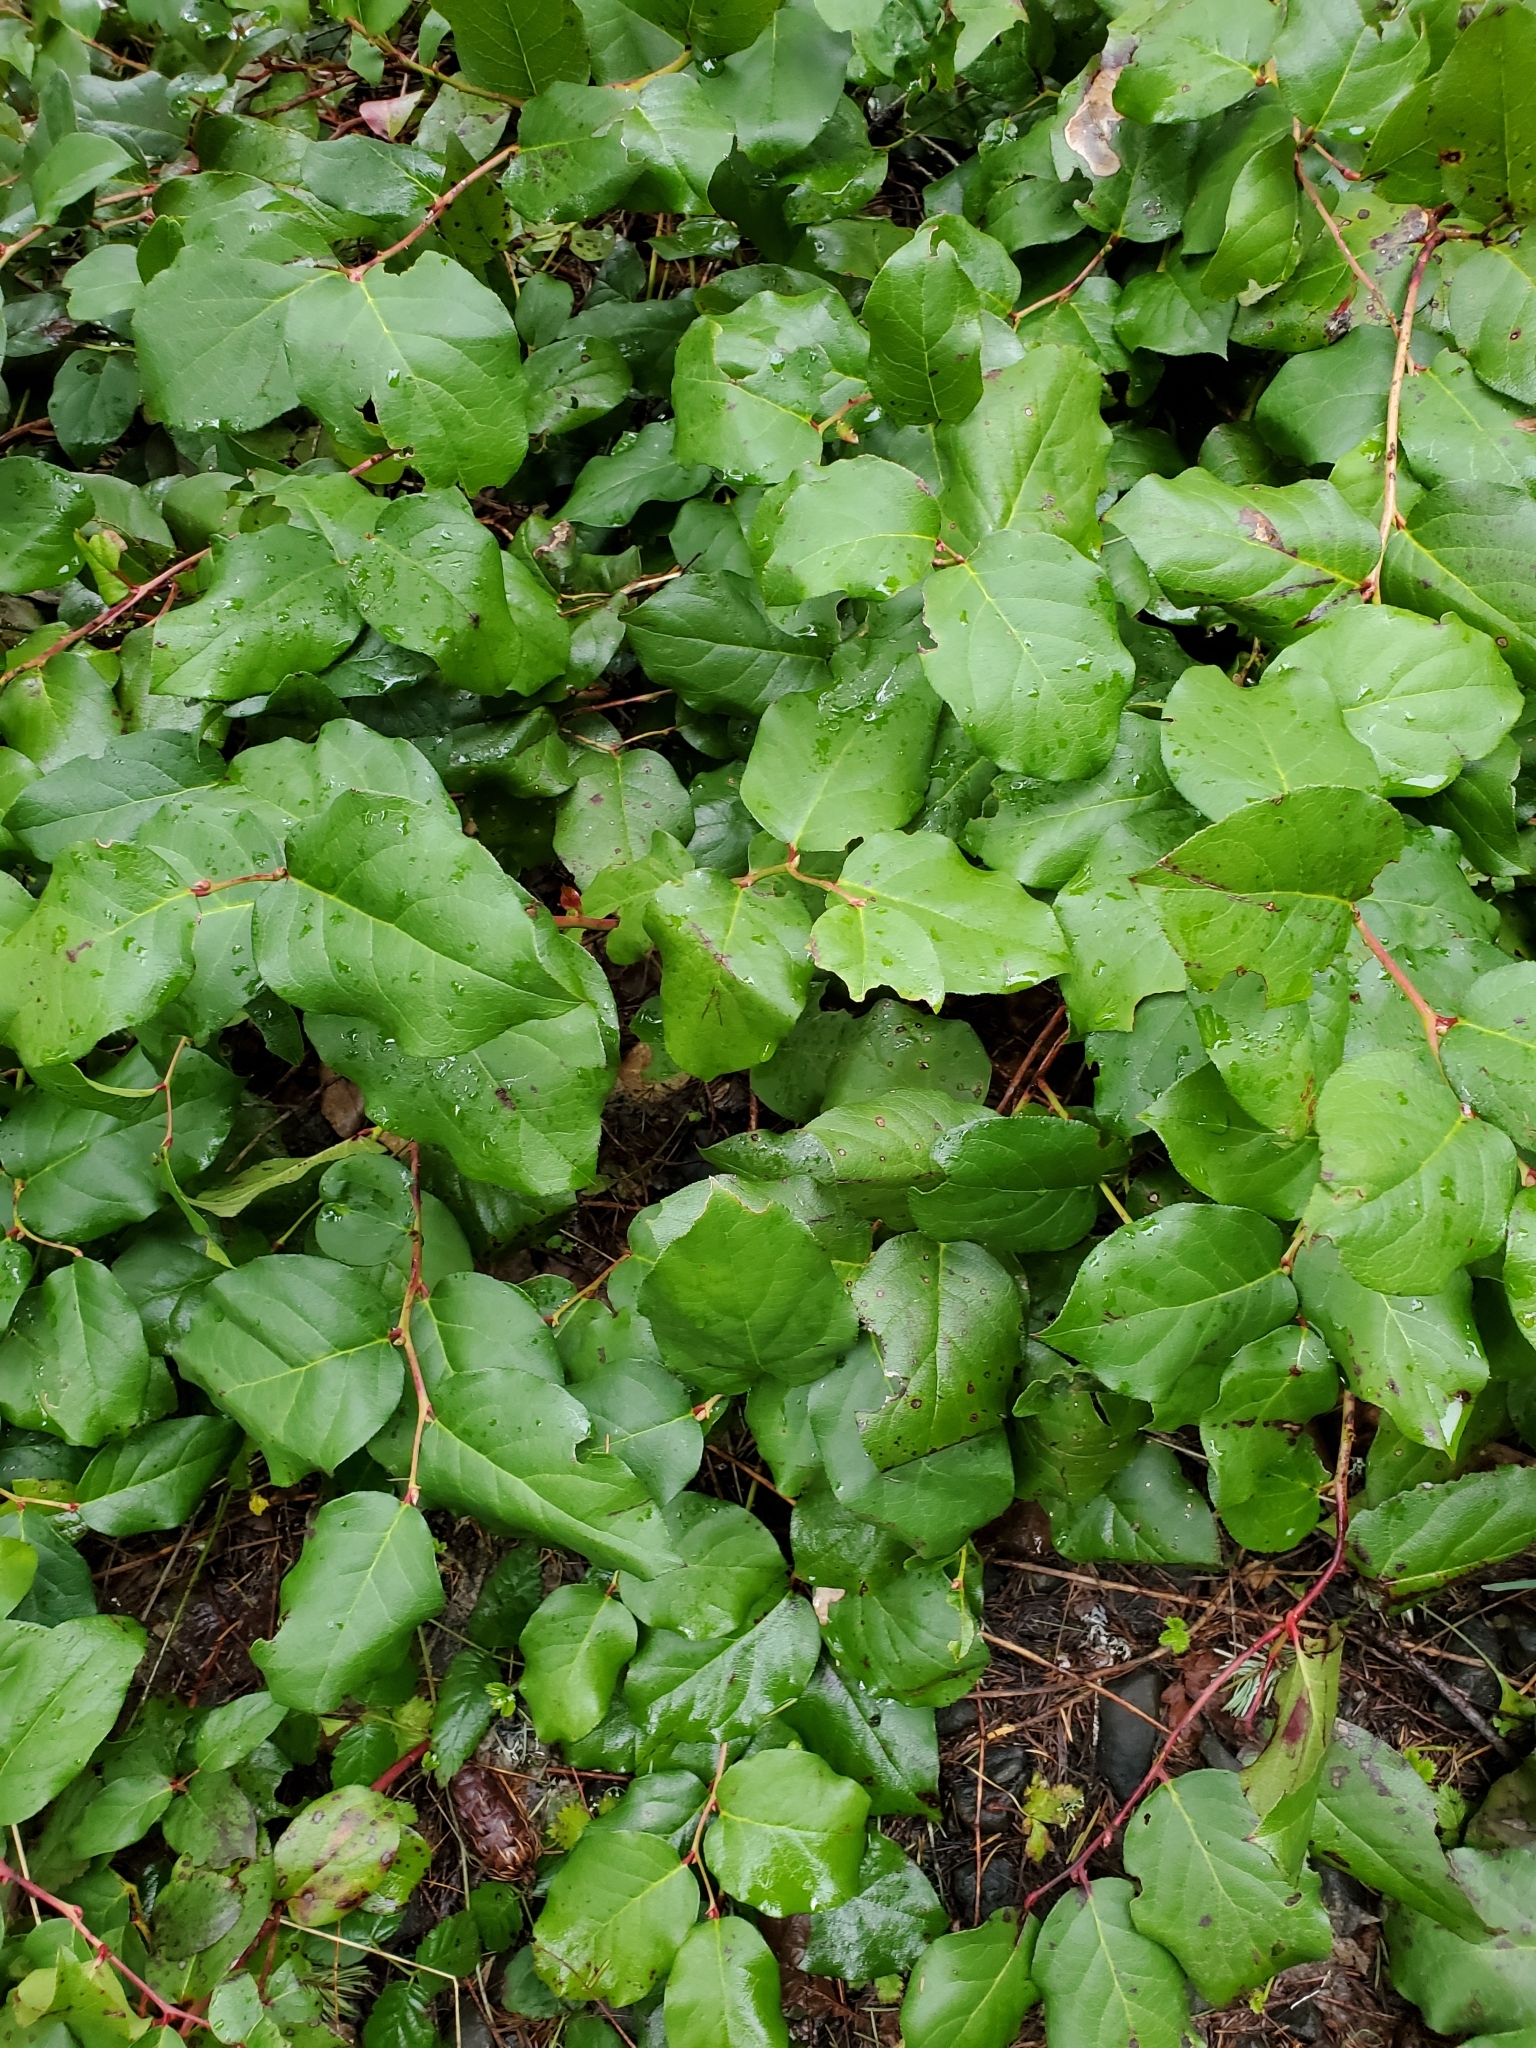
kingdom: Plantae
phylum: Tracheophyta
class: Magnoliopsida
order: Ericales
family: Ericaceae
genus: Gaultheria
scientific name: Gaultheria shallon
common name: Shallon
